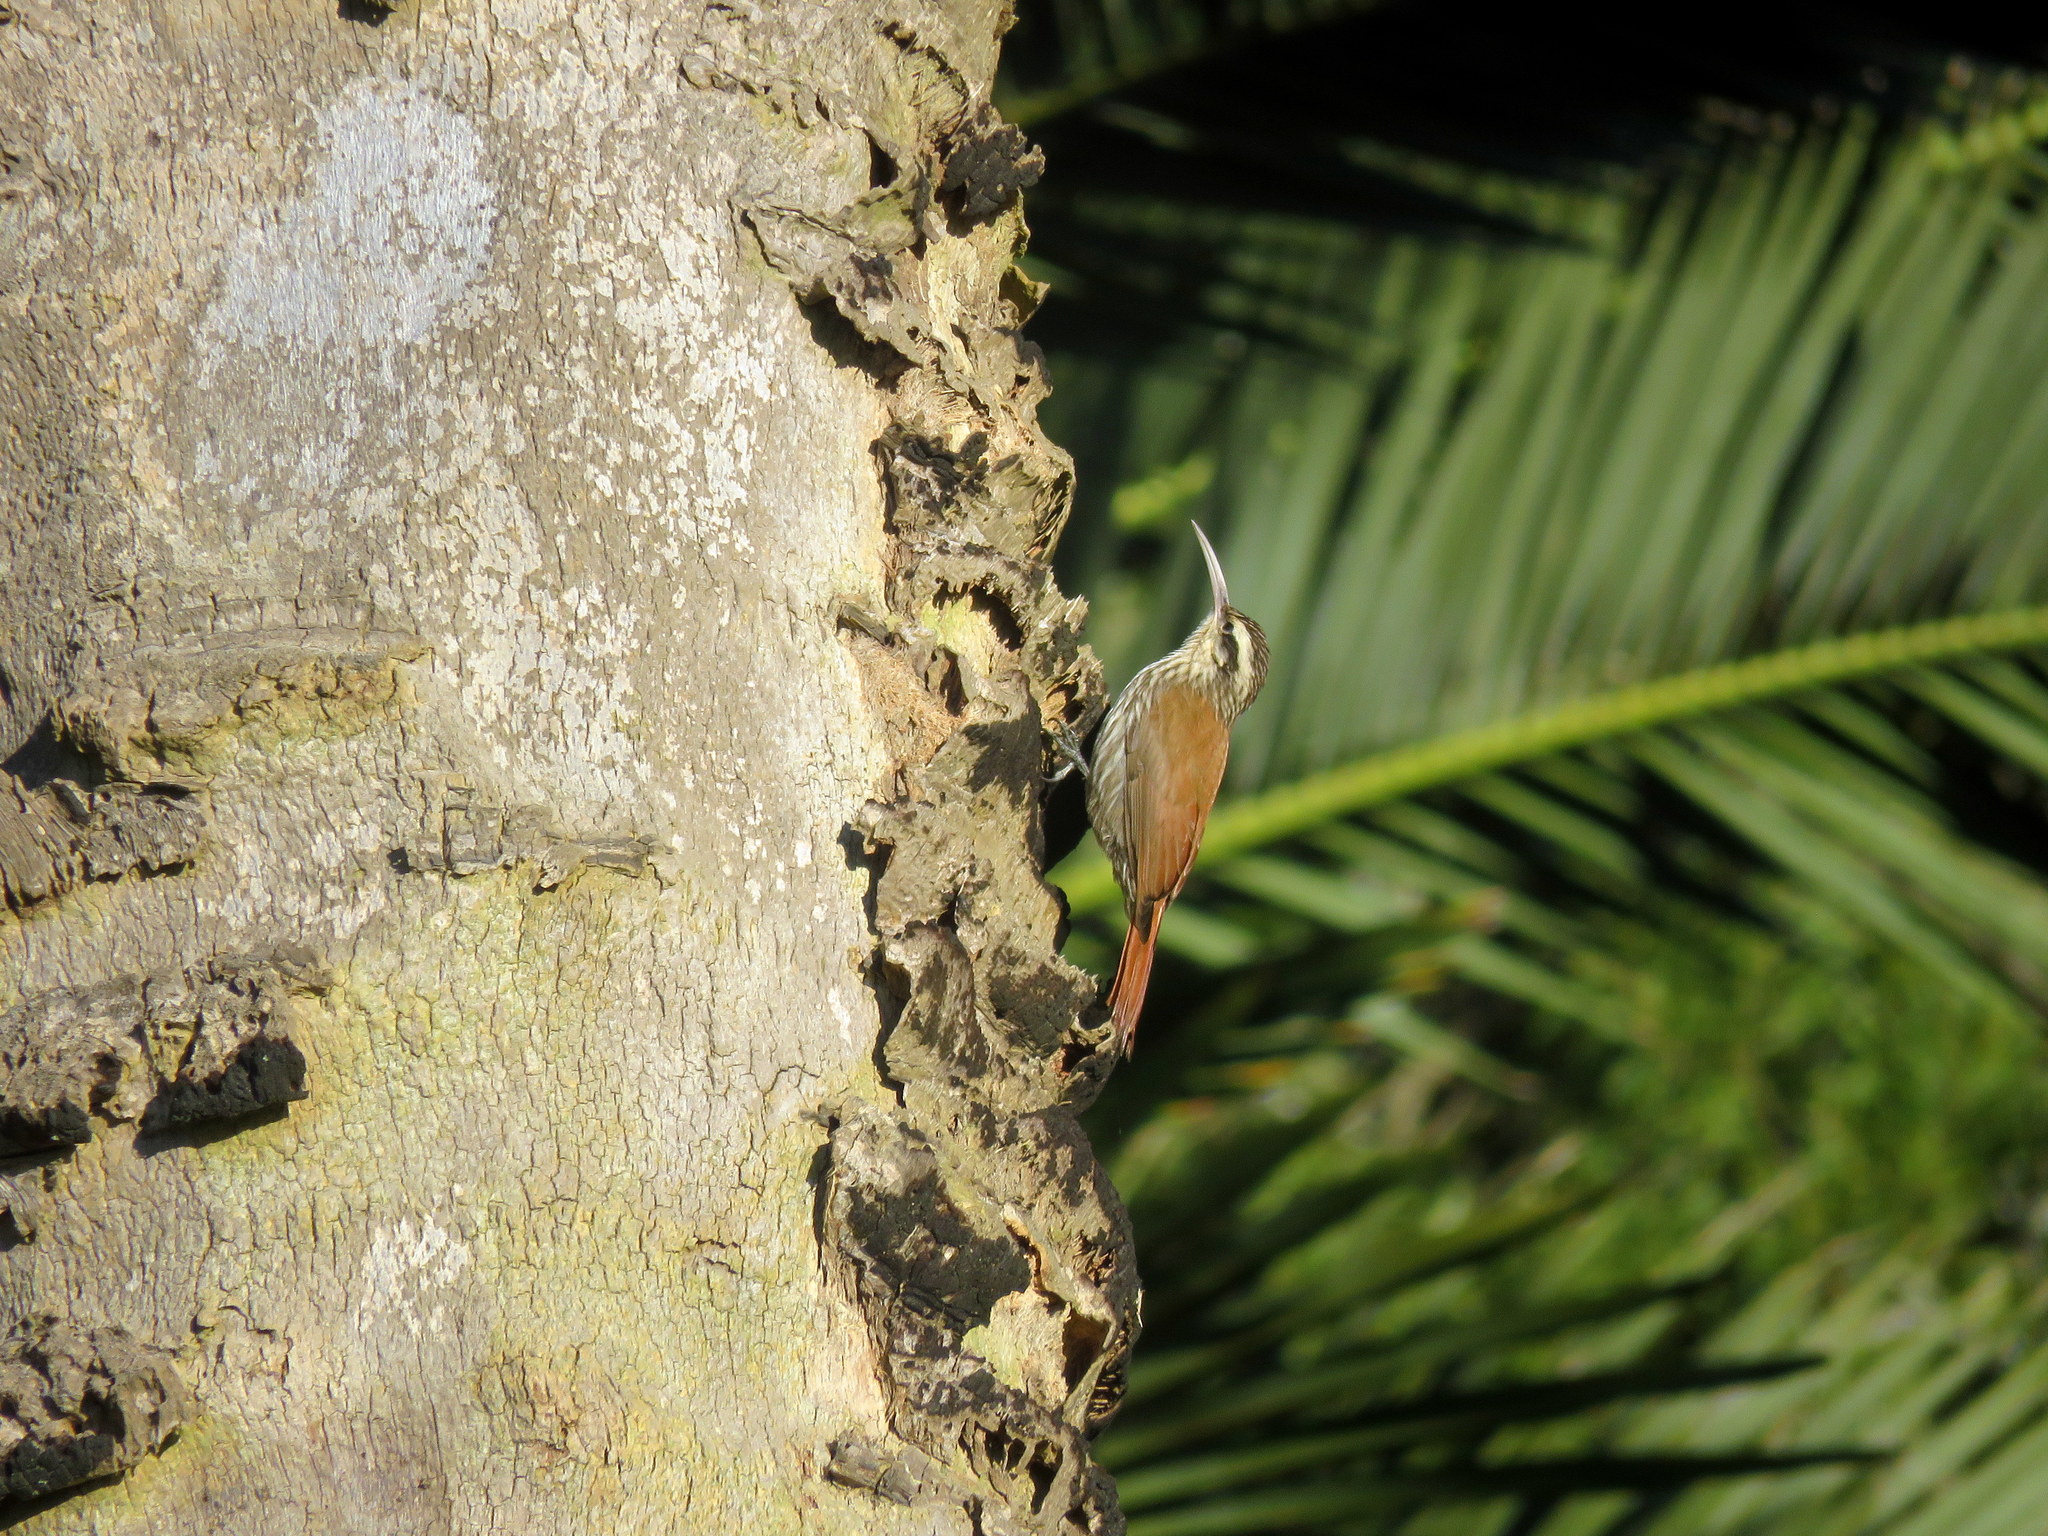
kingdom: Animalia
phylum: Chordata
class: Aves
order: Passeriformes
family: Furnariidae
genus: Lepidocolaptes
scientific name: Lepidocolaptes angustirostris
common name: Narrow-billed woodcreeper
